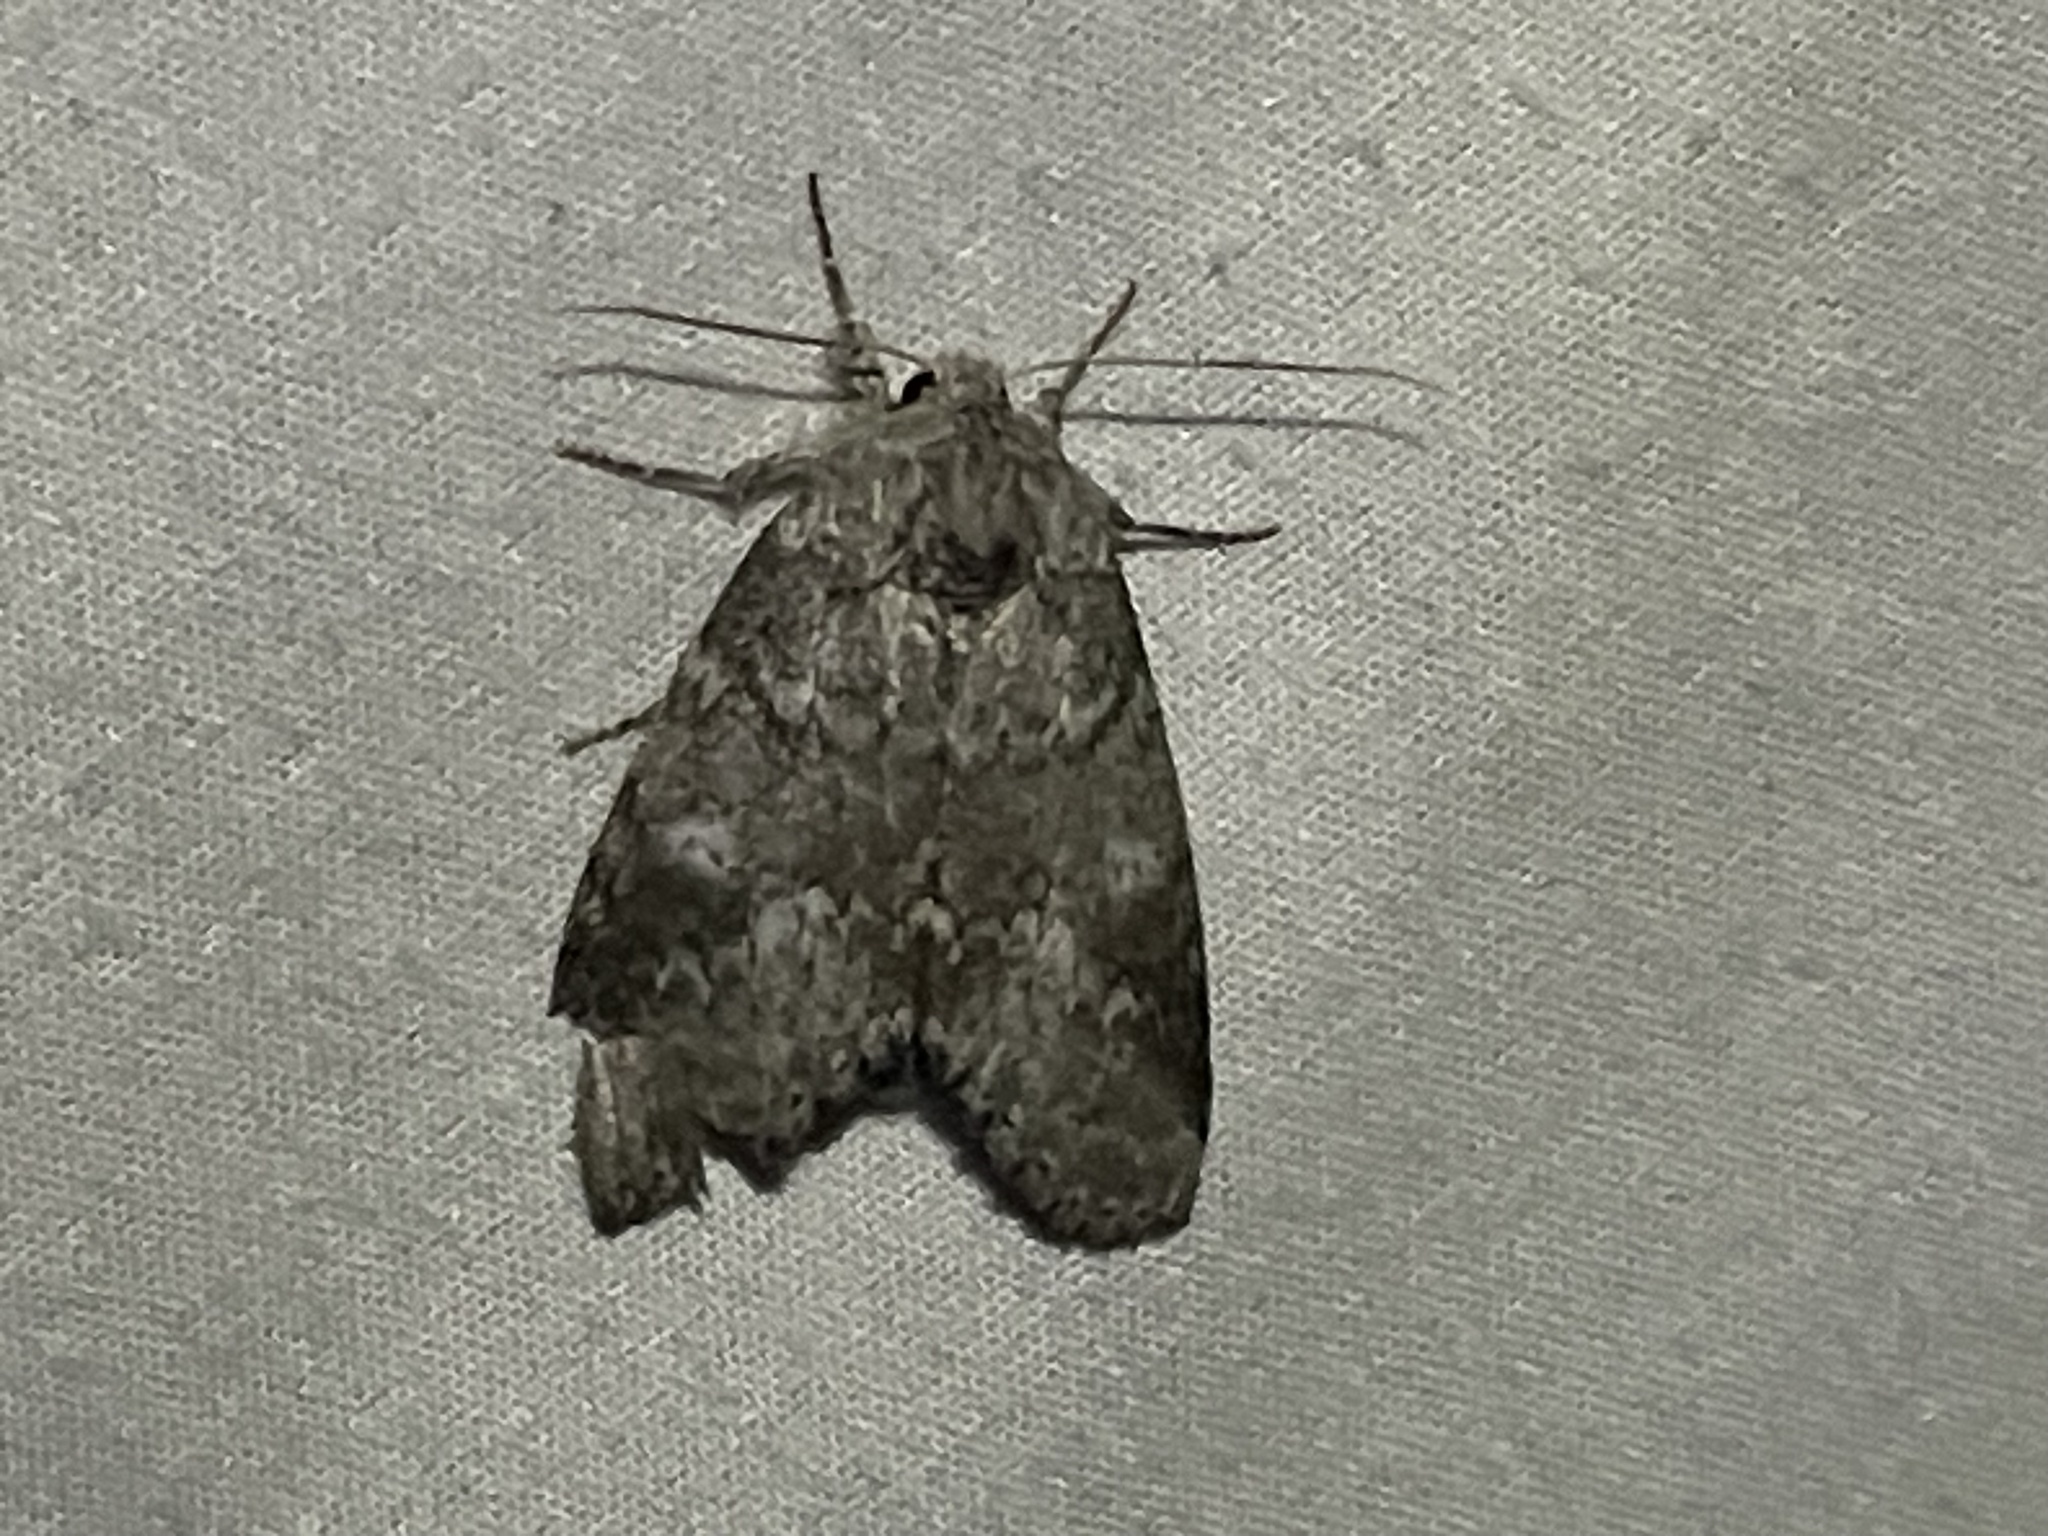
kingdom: Animalia
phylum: Arthropoda
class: Insecta
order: Lepidoptera
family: Notodontidae
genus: Lochmaeus
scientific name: Lochmaeus manteo
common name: Variable oakleaf caterpillar moth
